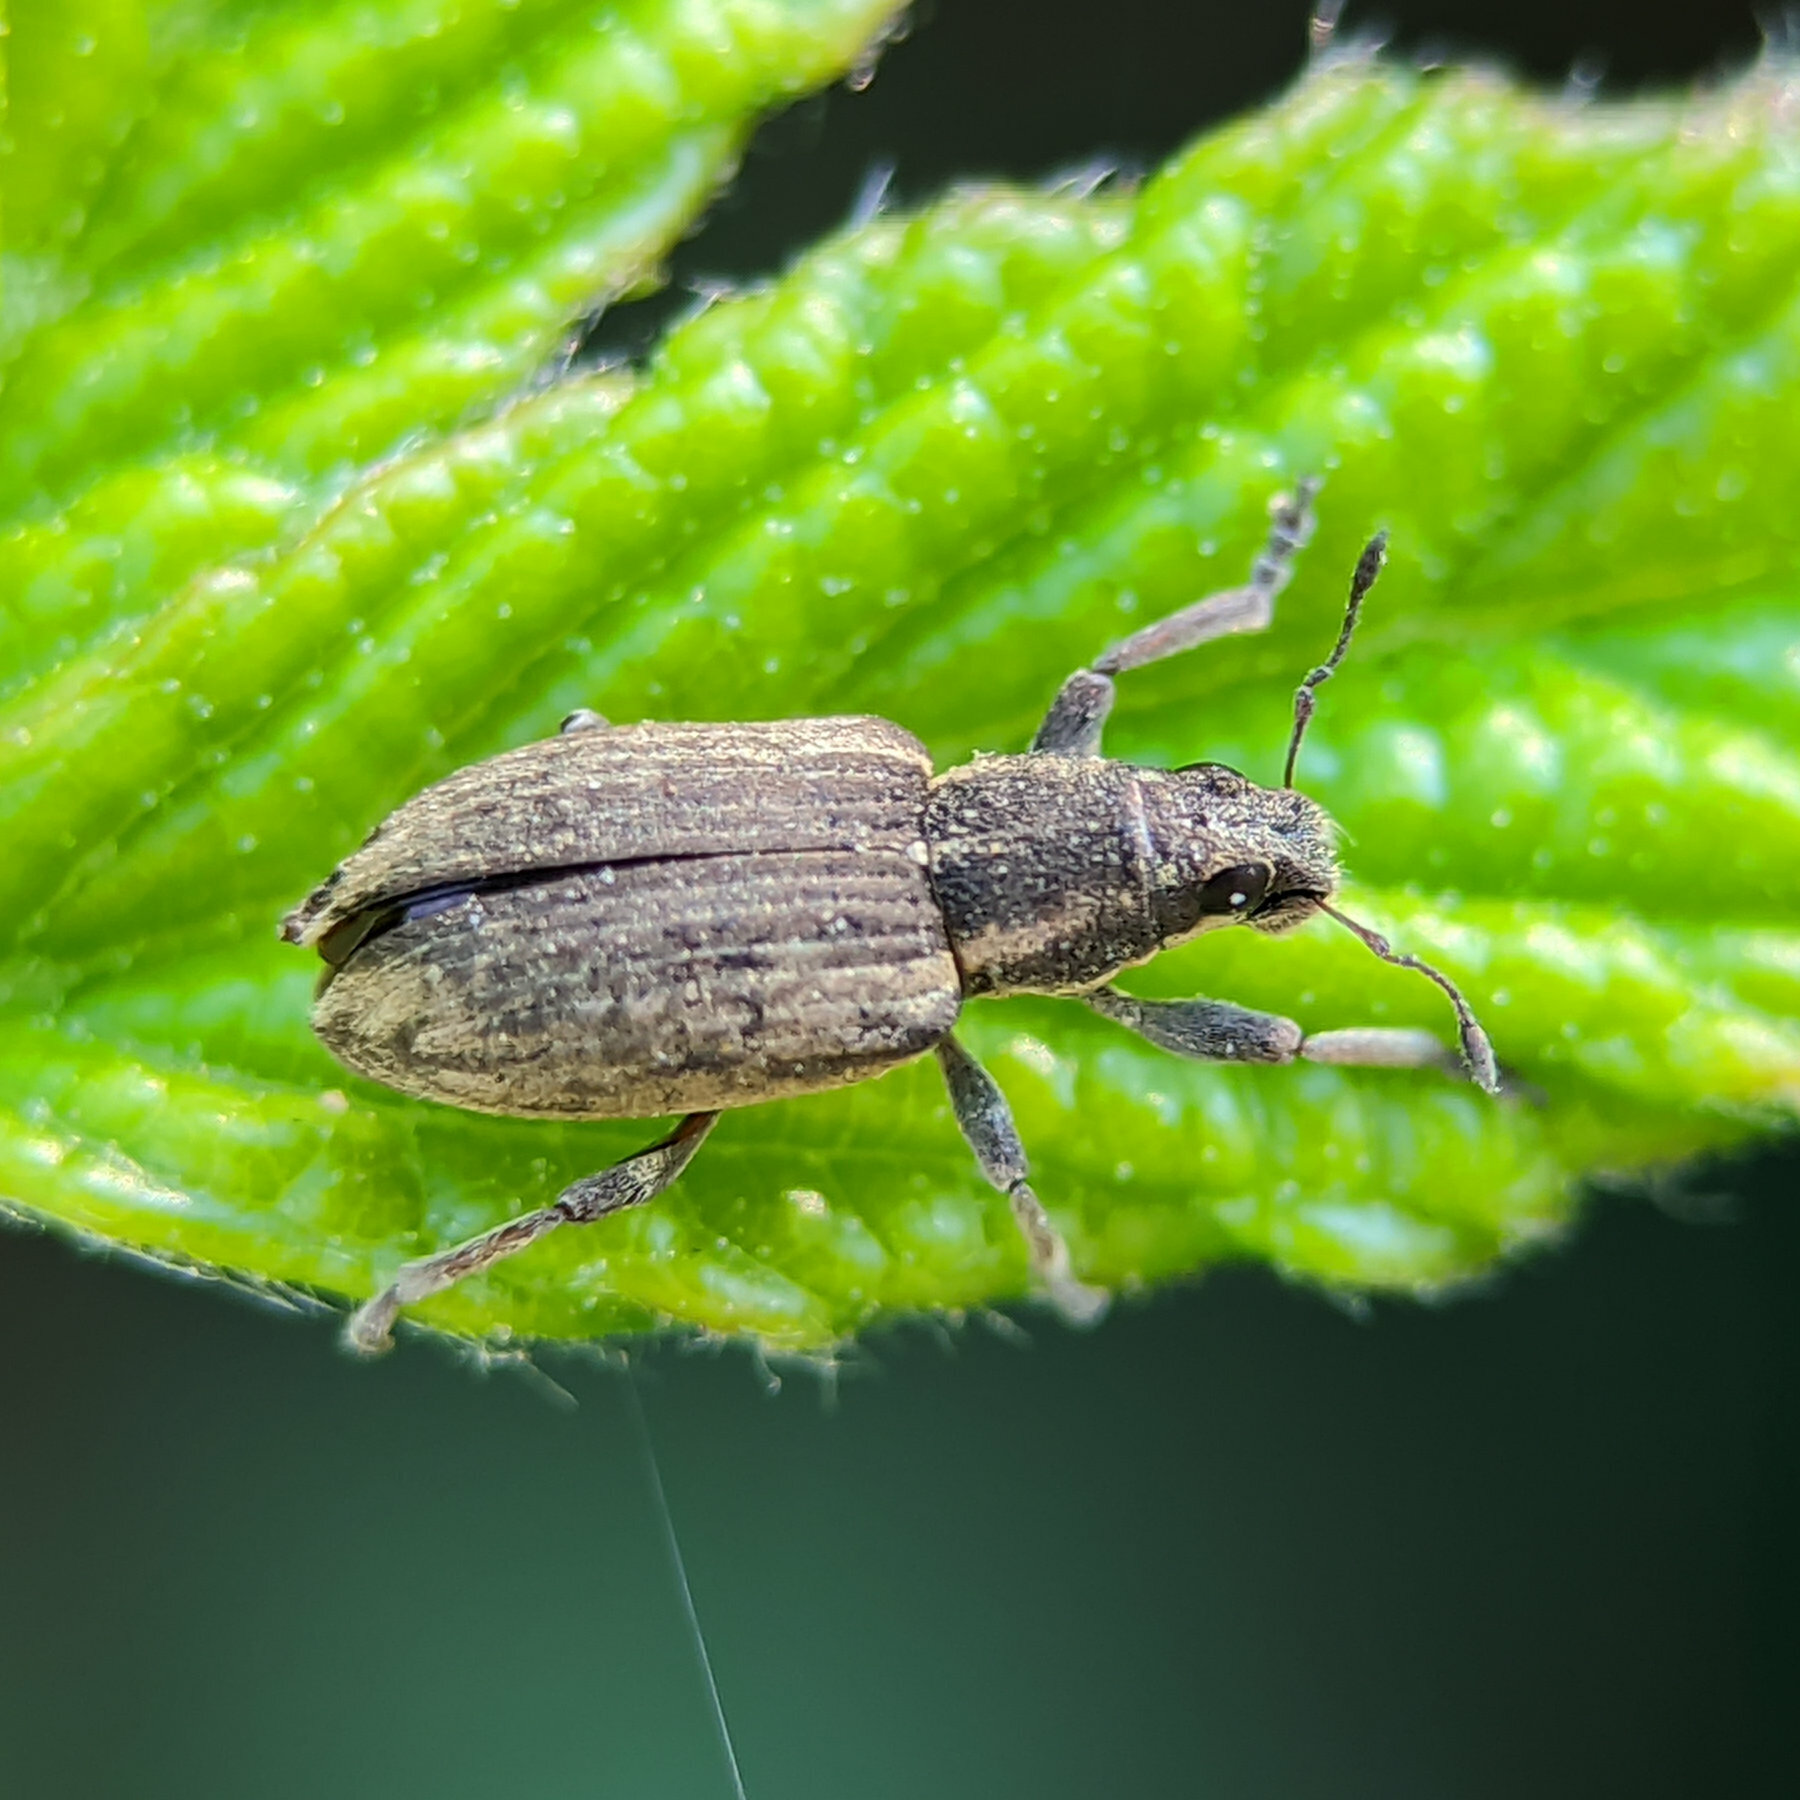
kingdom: Animalia
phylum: Arthropoda
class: Insecta
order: Coleoptera
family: Curculionidae
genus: Sitona
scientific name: Sitona humeralis
